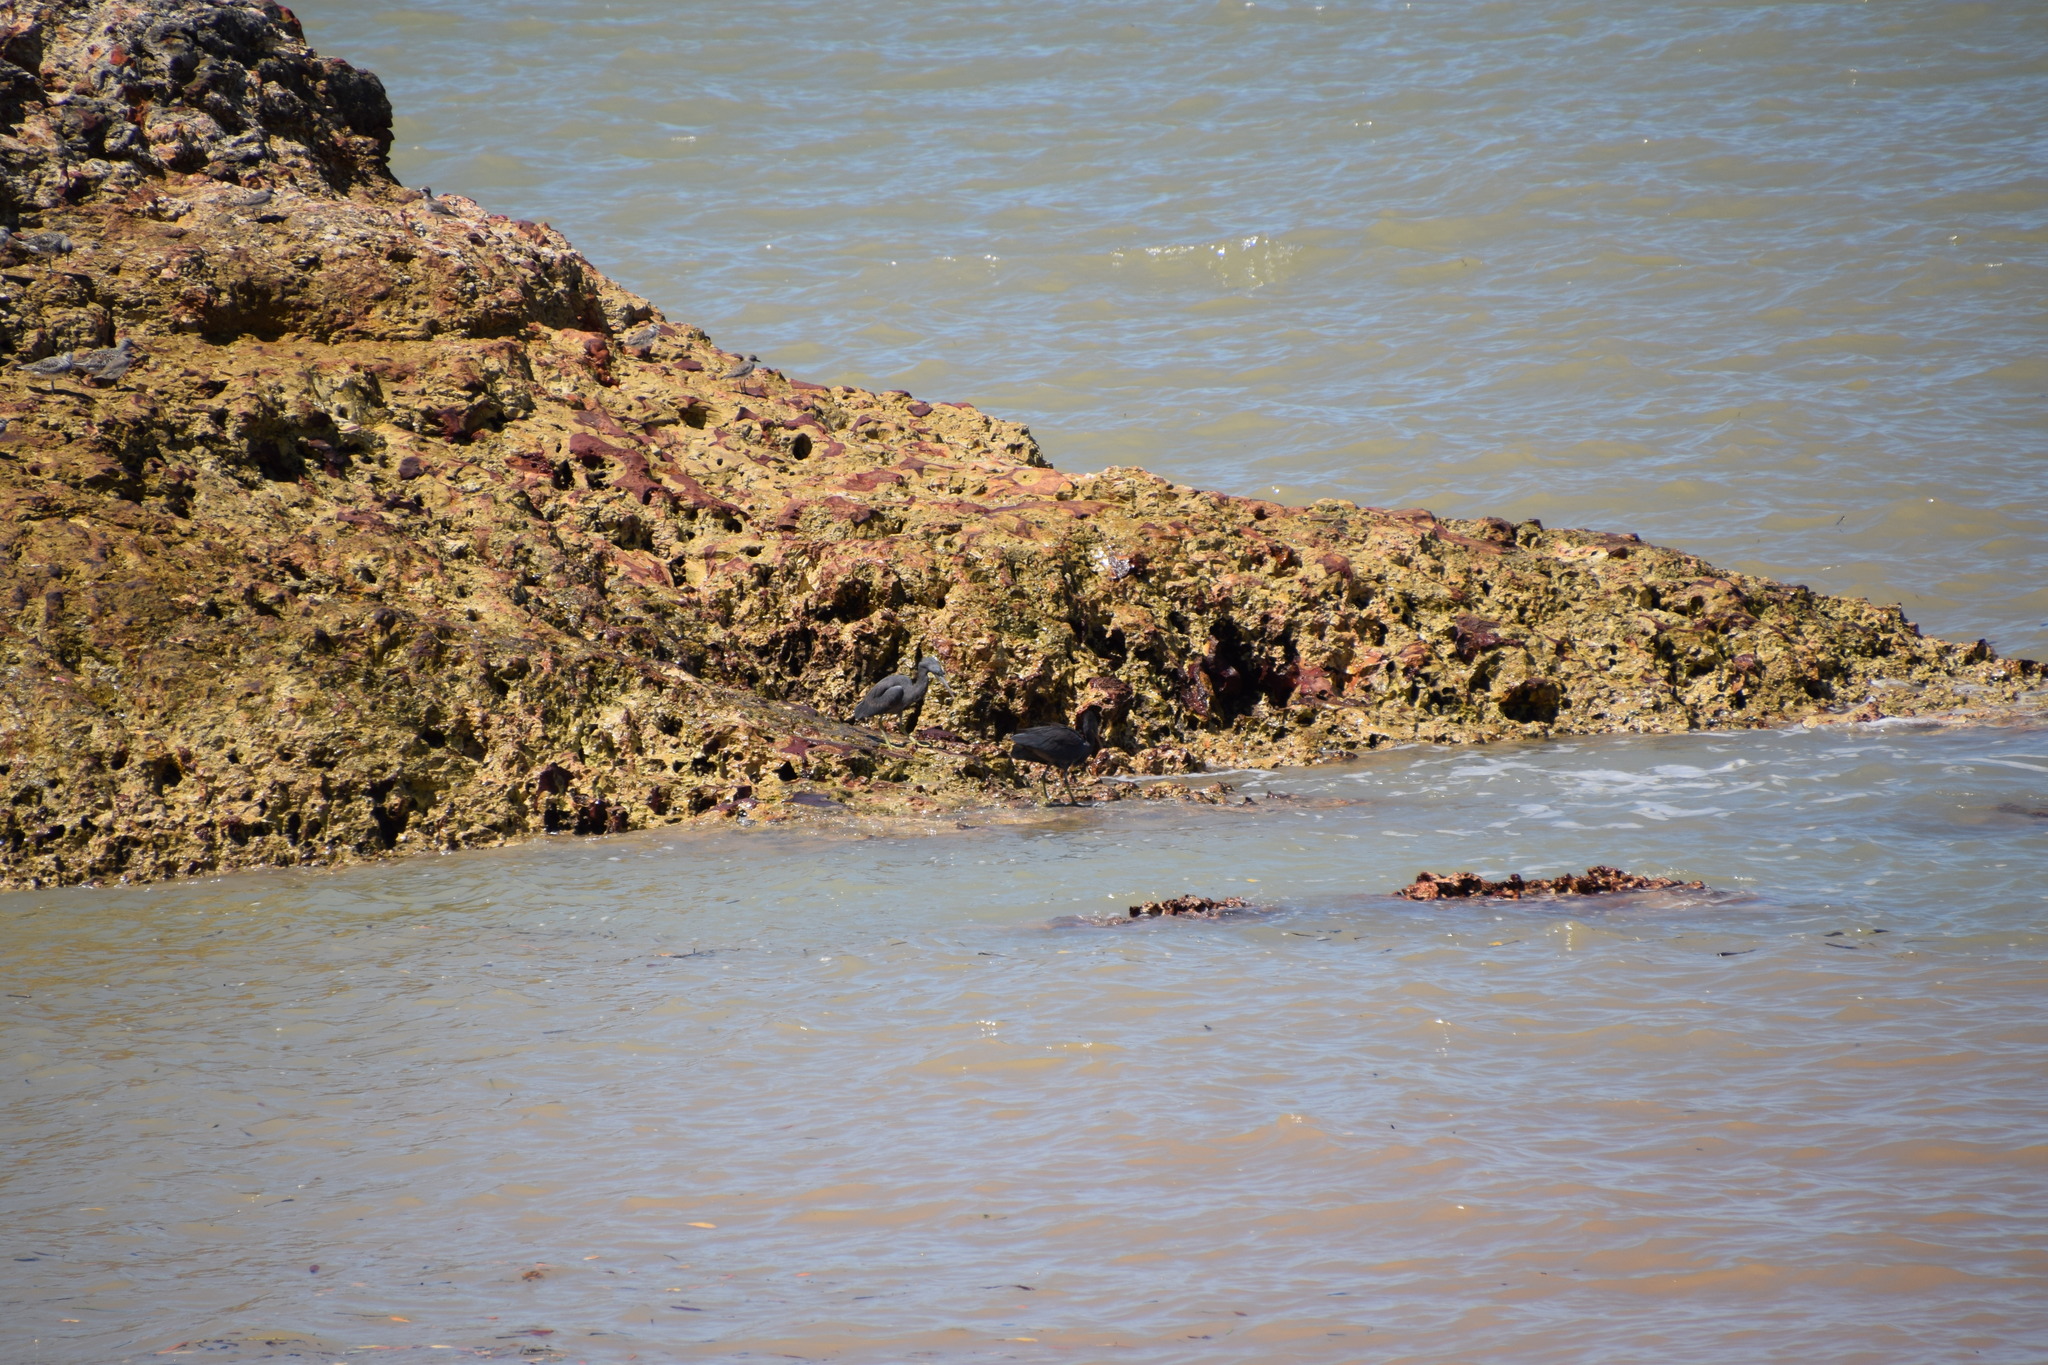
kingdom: Animalia
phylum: Chordata
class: Aves
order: Pelecaniformes
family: Ardeidae
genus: Egretta
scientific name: Egretta sacra
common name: Pacific reef heron
